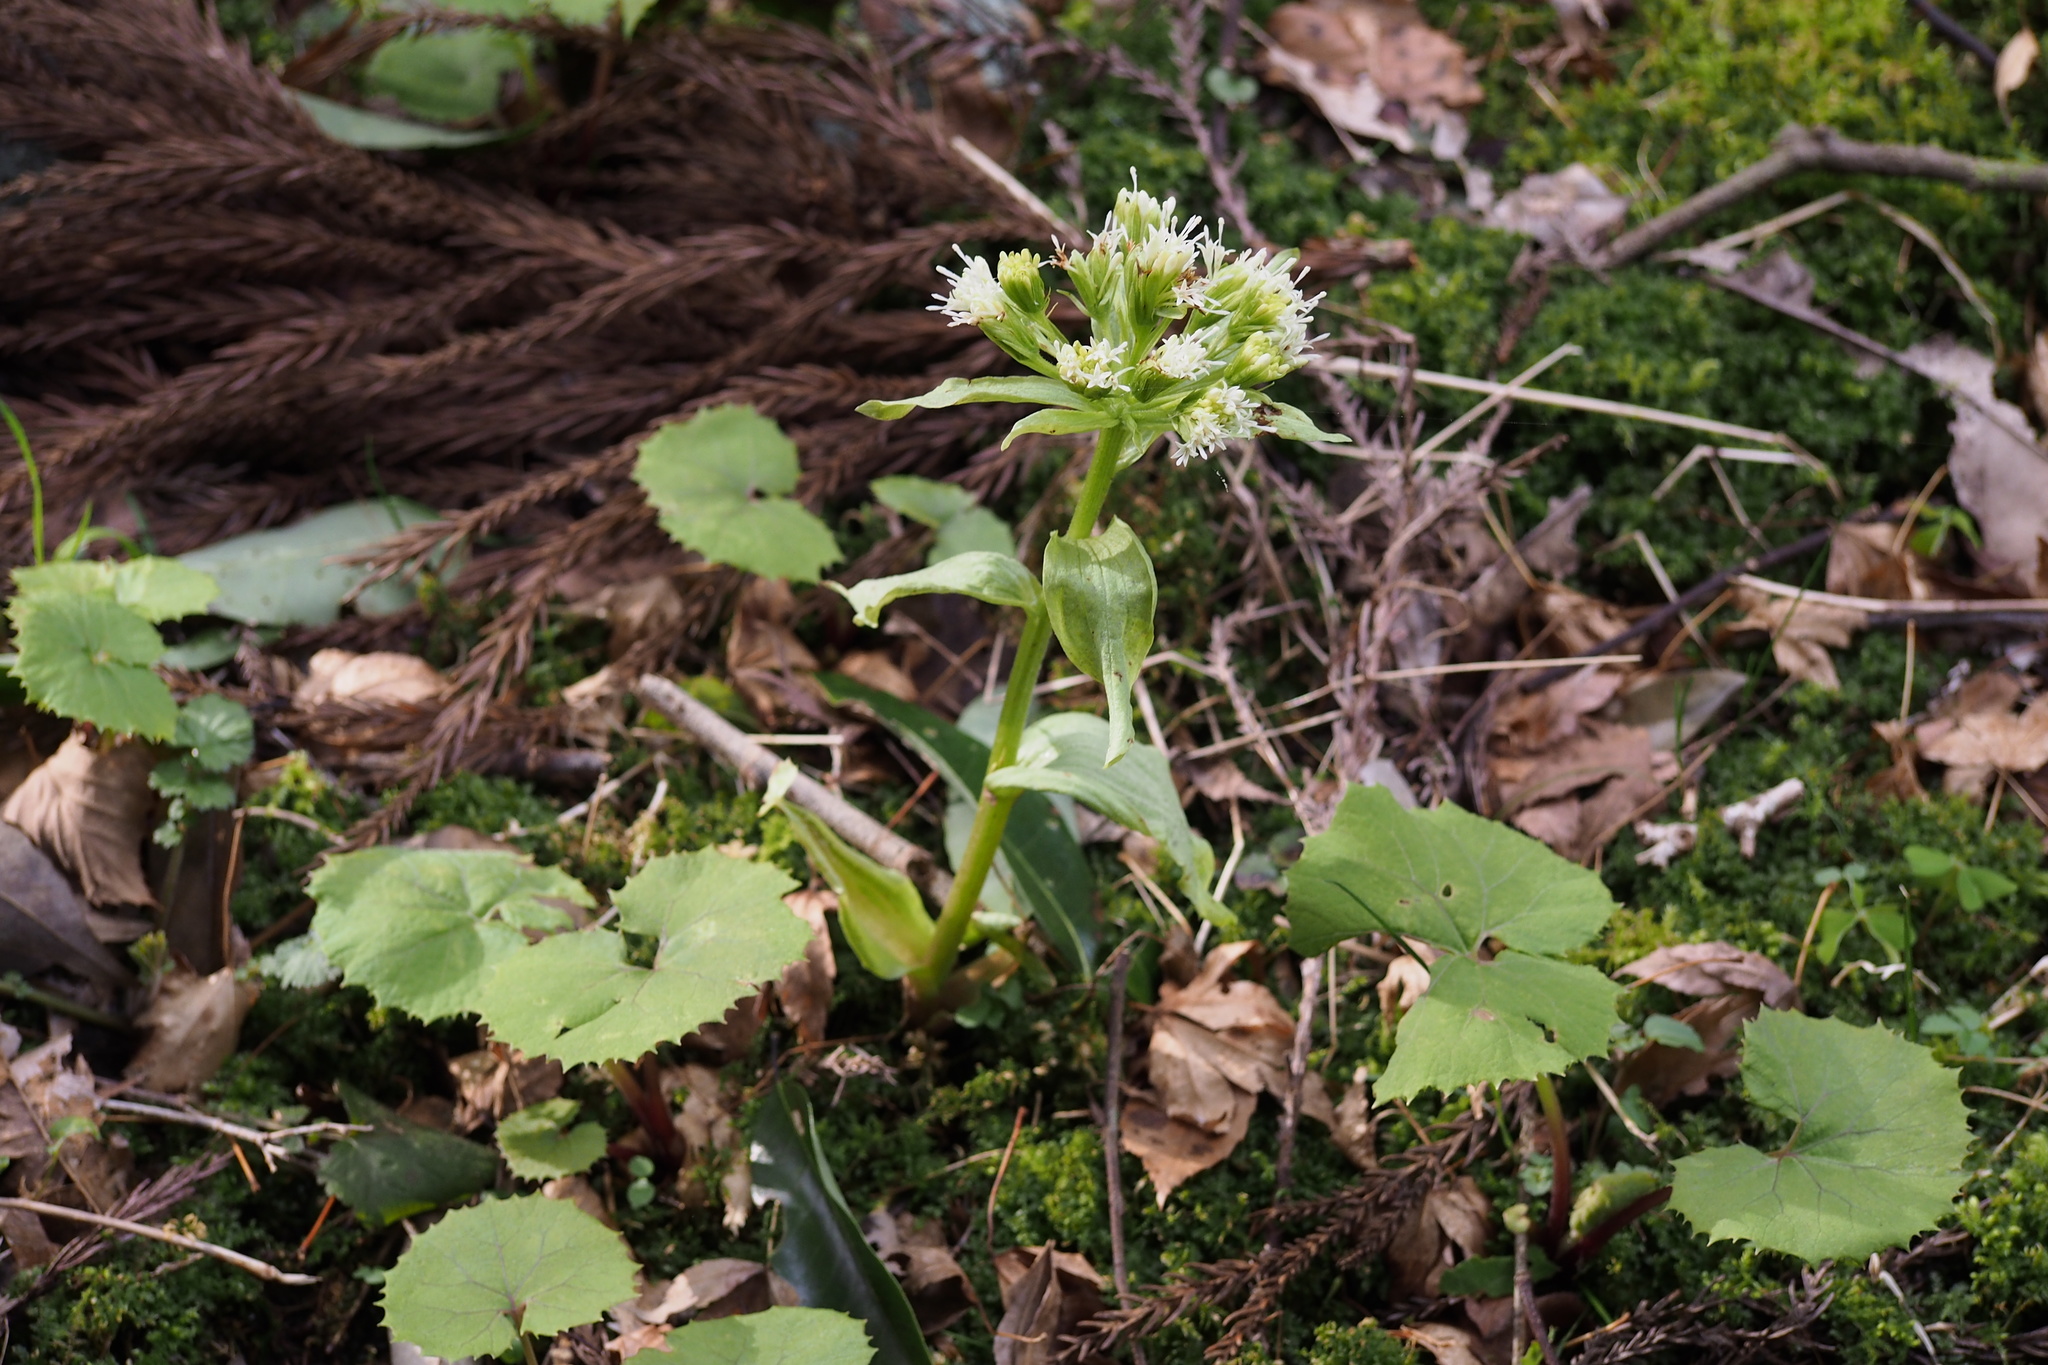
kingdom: Plantae
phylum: Tracheophyta
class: Magnoliopsida
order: Asterales
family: Asteraceae
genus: Petasites
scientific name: Petasites japonicus
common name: Giant butterbur
